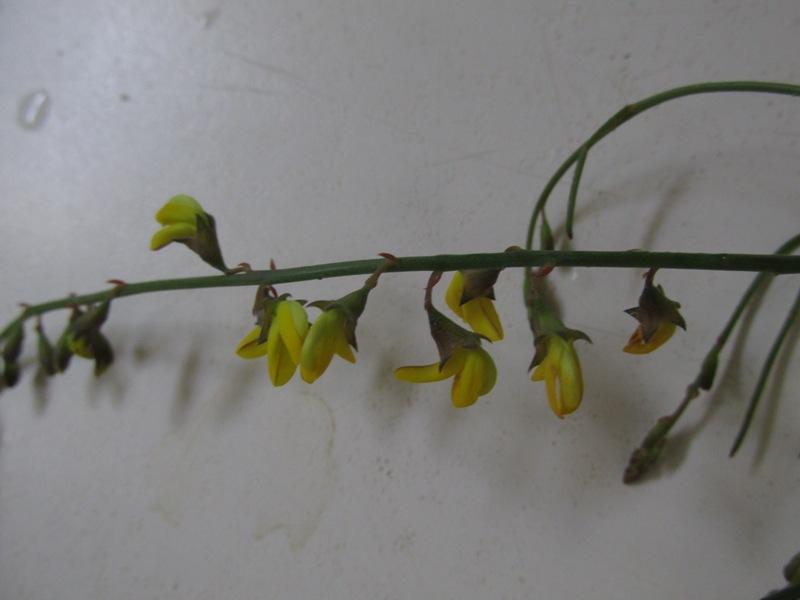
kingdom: Plantae
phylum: Tracheophyta
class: Magnoliopsida
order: Fabales
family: Fabaceae
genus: Lebeckia
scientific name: Lebeckia contaminata
